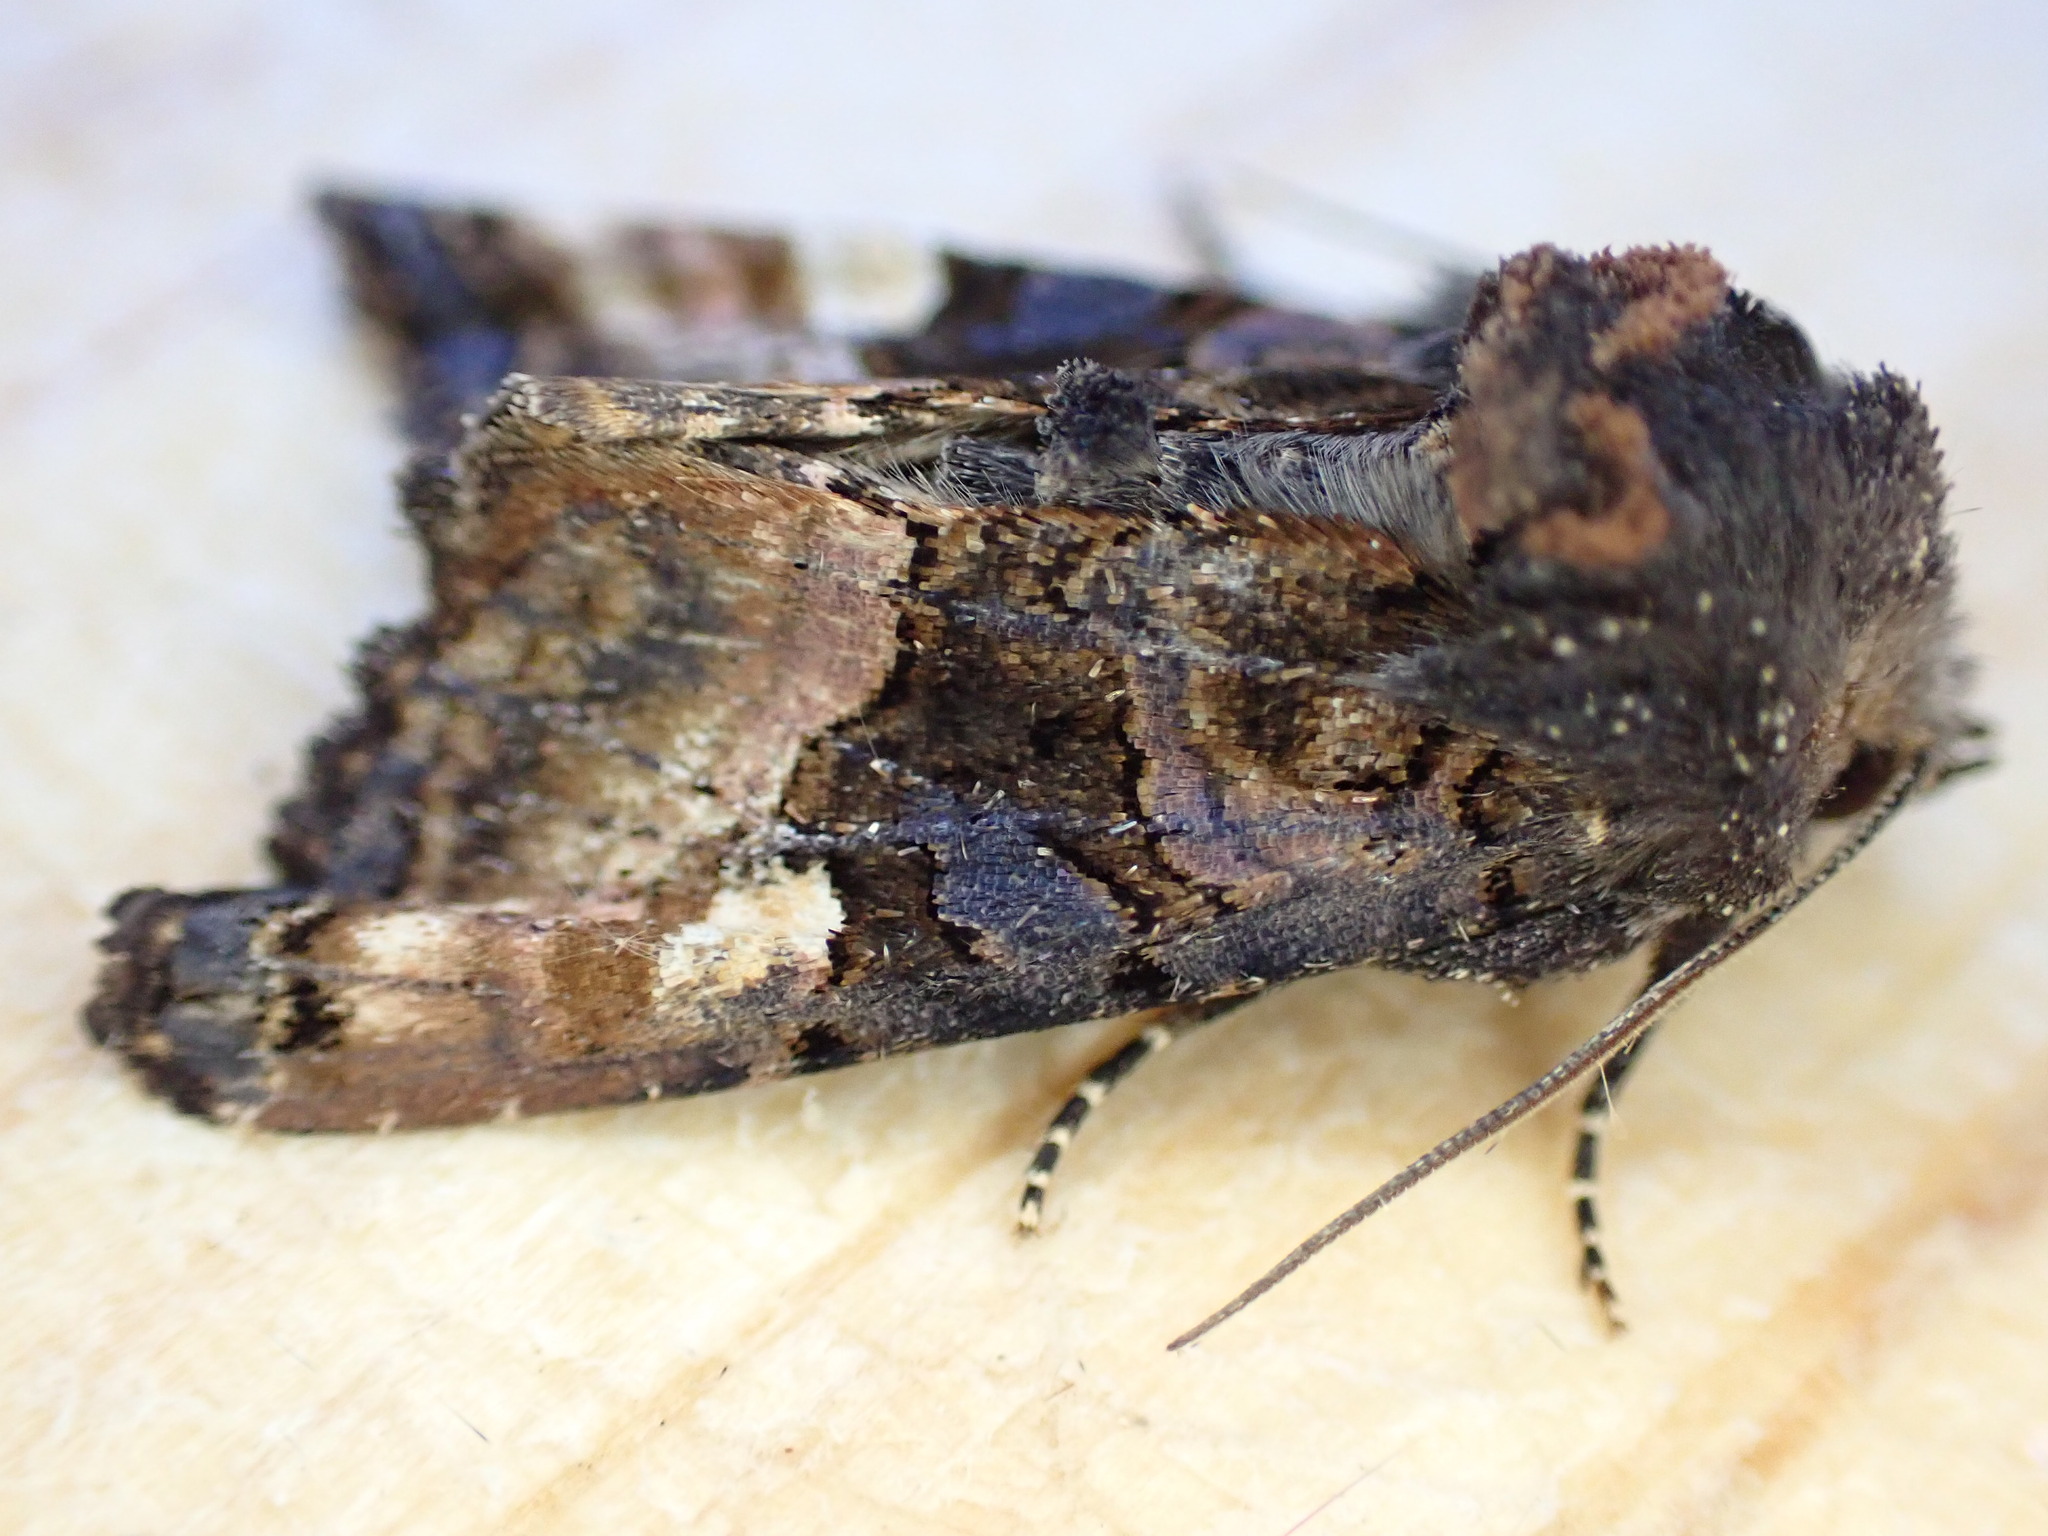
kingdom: Animalia
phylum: Arthropoda
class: Insecta
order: Lepidoptera
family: Noctuidae
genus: Euplexia
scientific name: Euplexia lucipara
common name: Small angle shades
